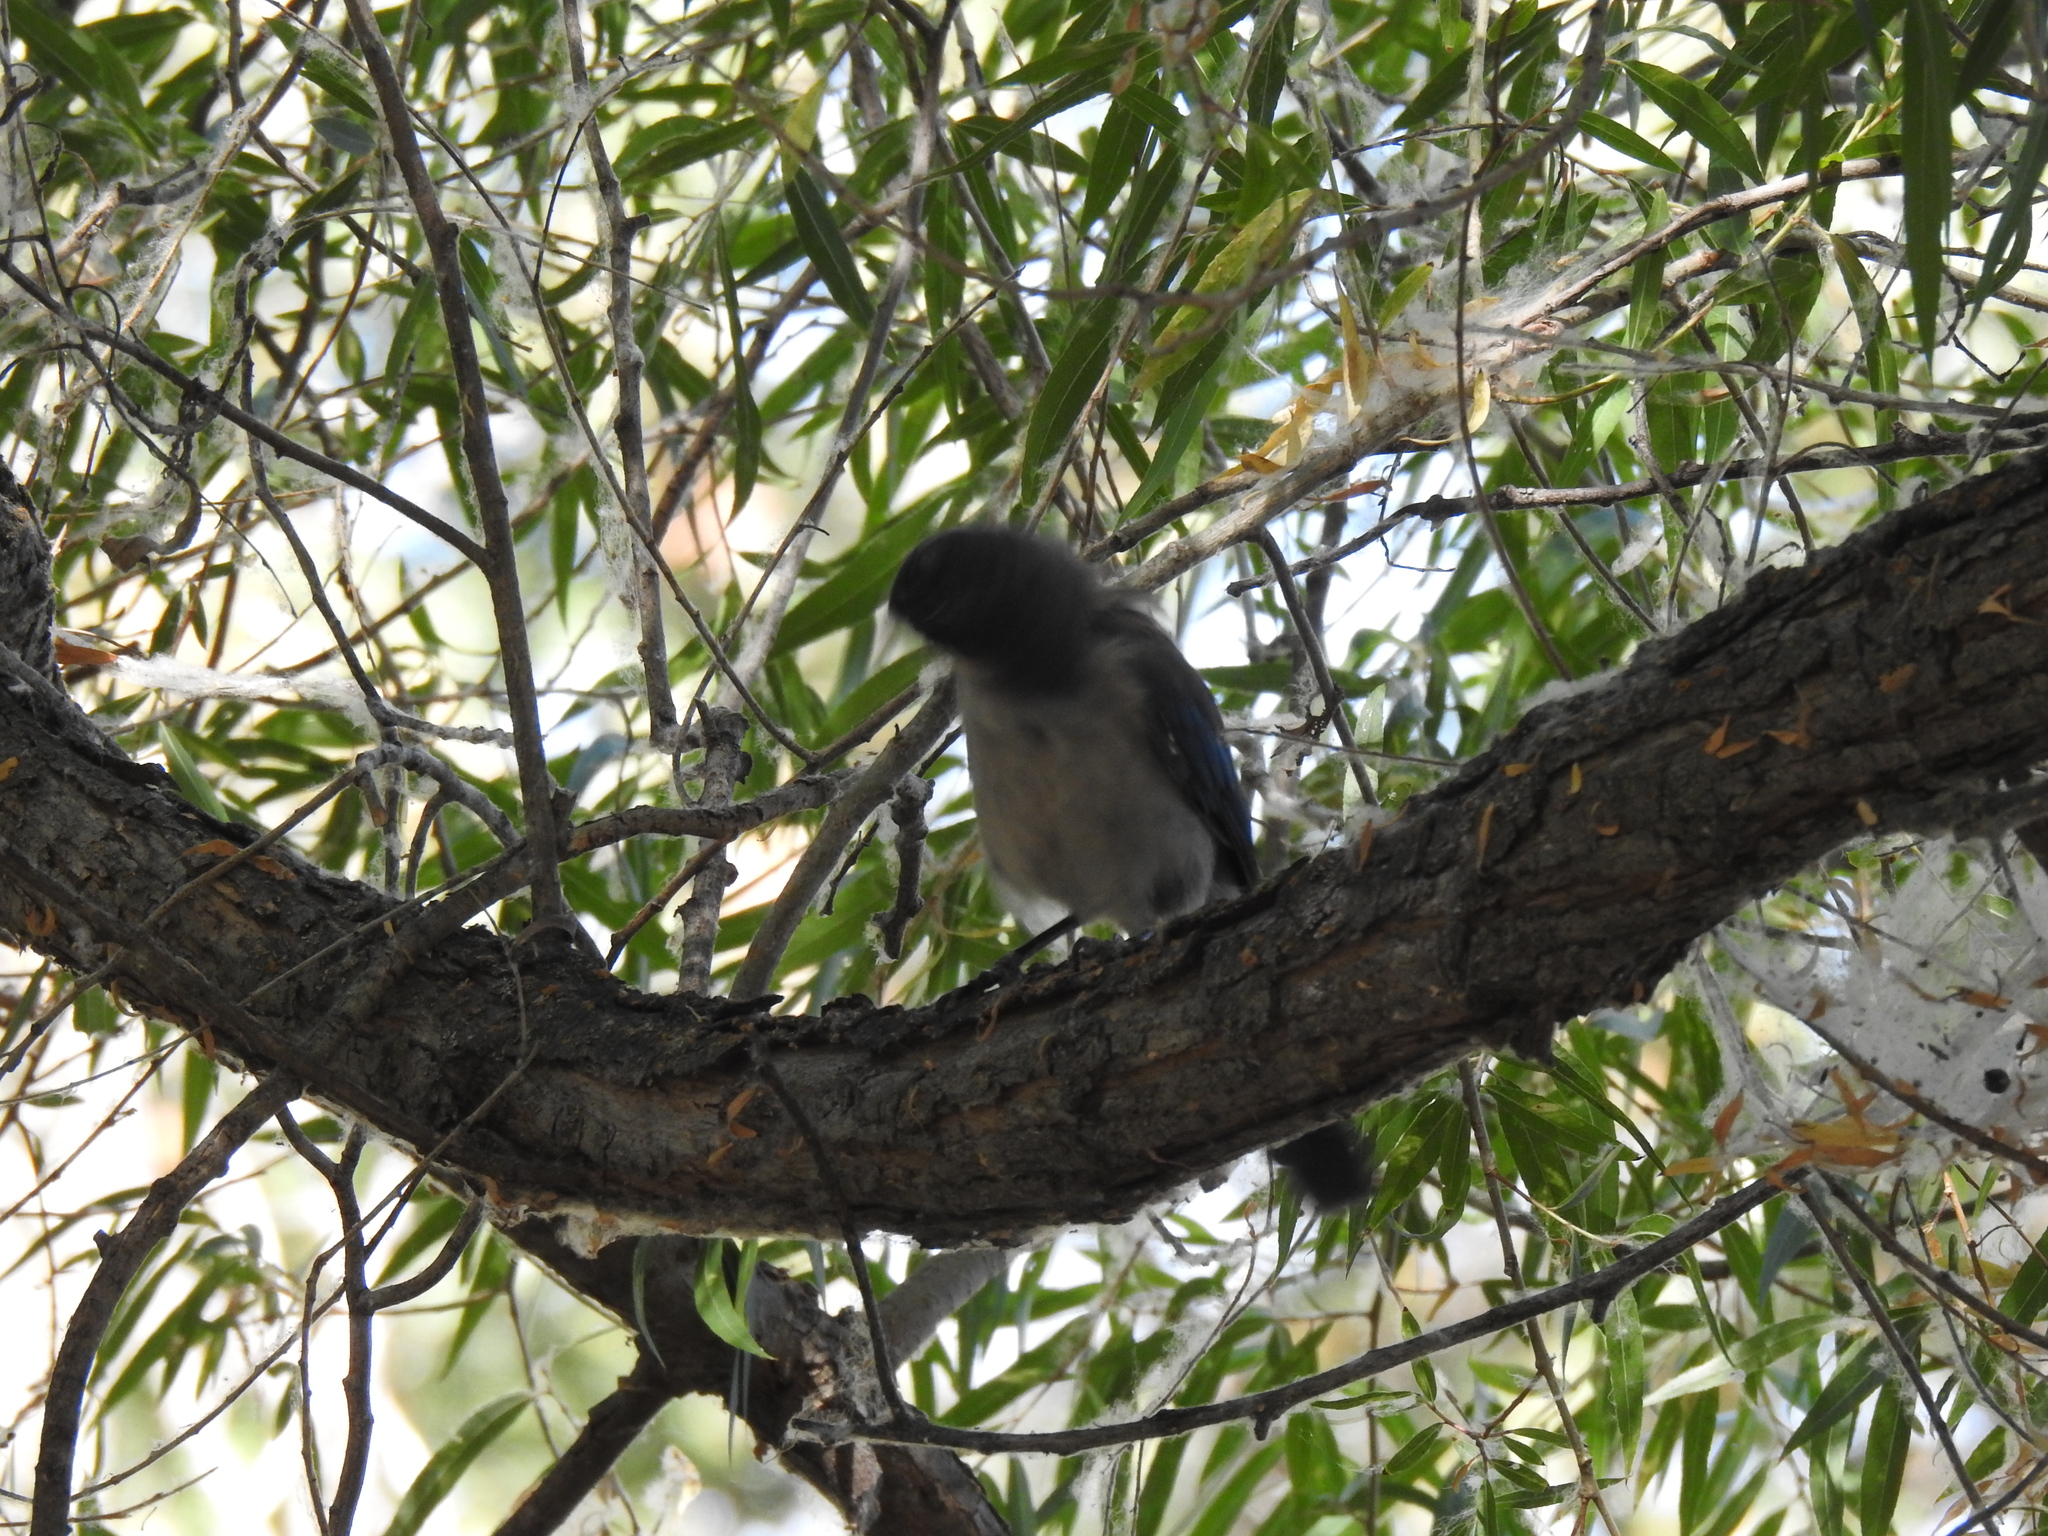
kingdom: Animalia
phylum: Chordata
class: Aves
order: Passeriformes
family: Corvidae
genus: Aphelocoma
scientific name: Aphelocoma californica
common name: California scrub-jay
